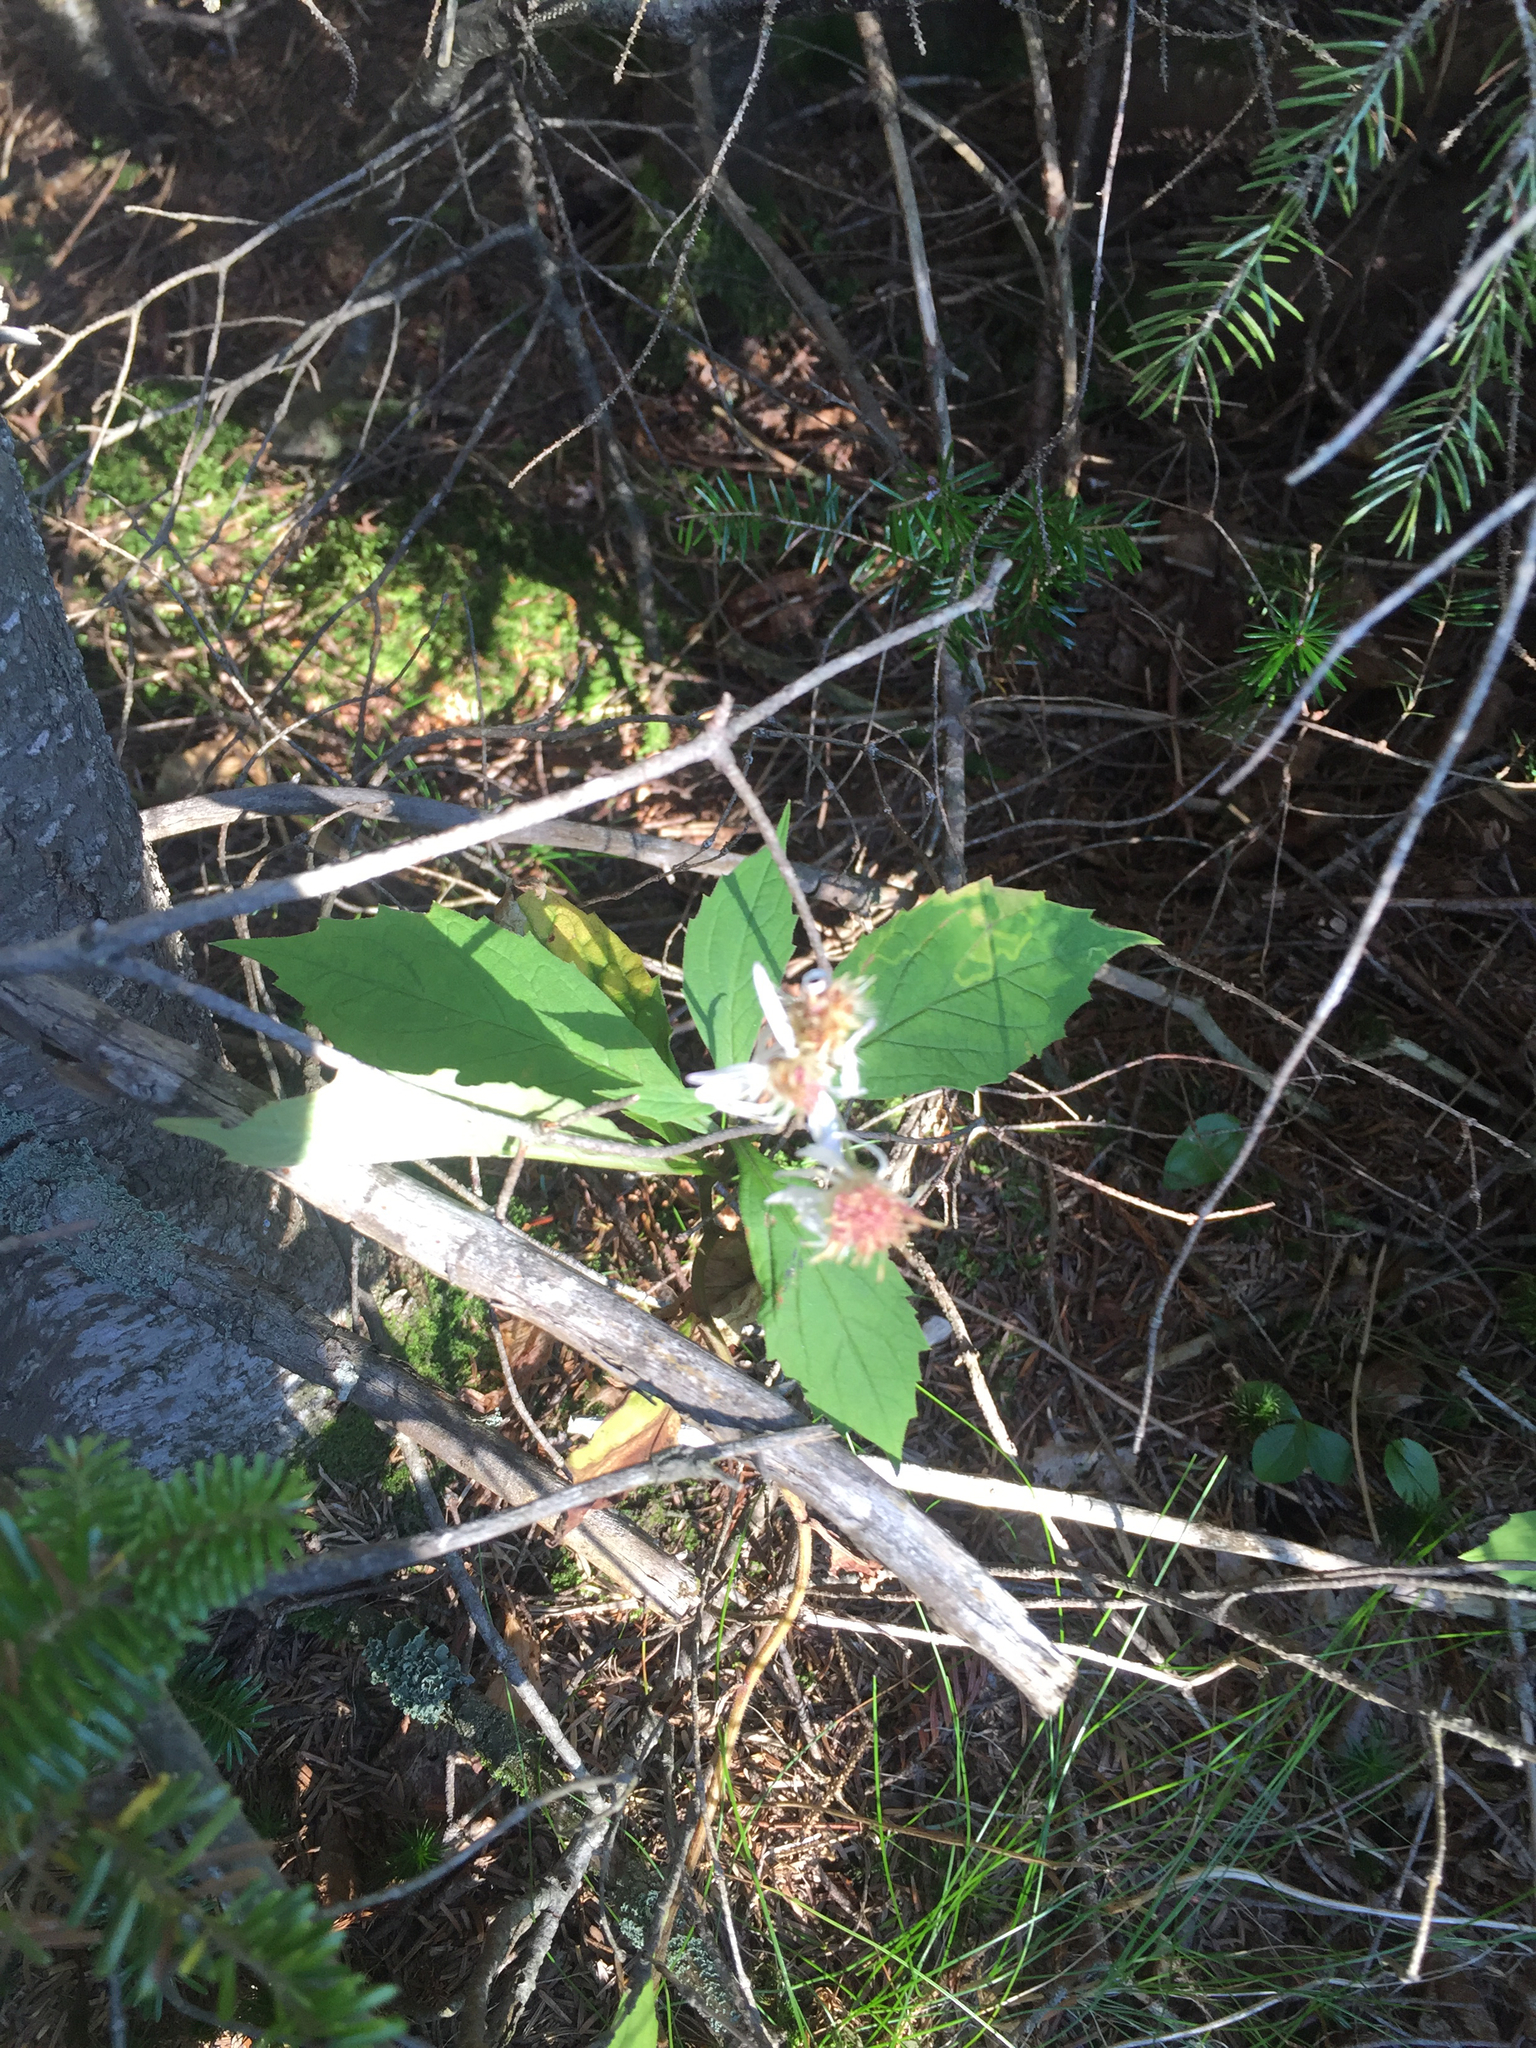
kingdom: Plantae
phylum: Tracheophyta
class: Magnoliopsida
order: Asterales
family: Asteraceae
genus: Oclemena
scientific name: Oclemena acuminata
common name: Mountain aster
